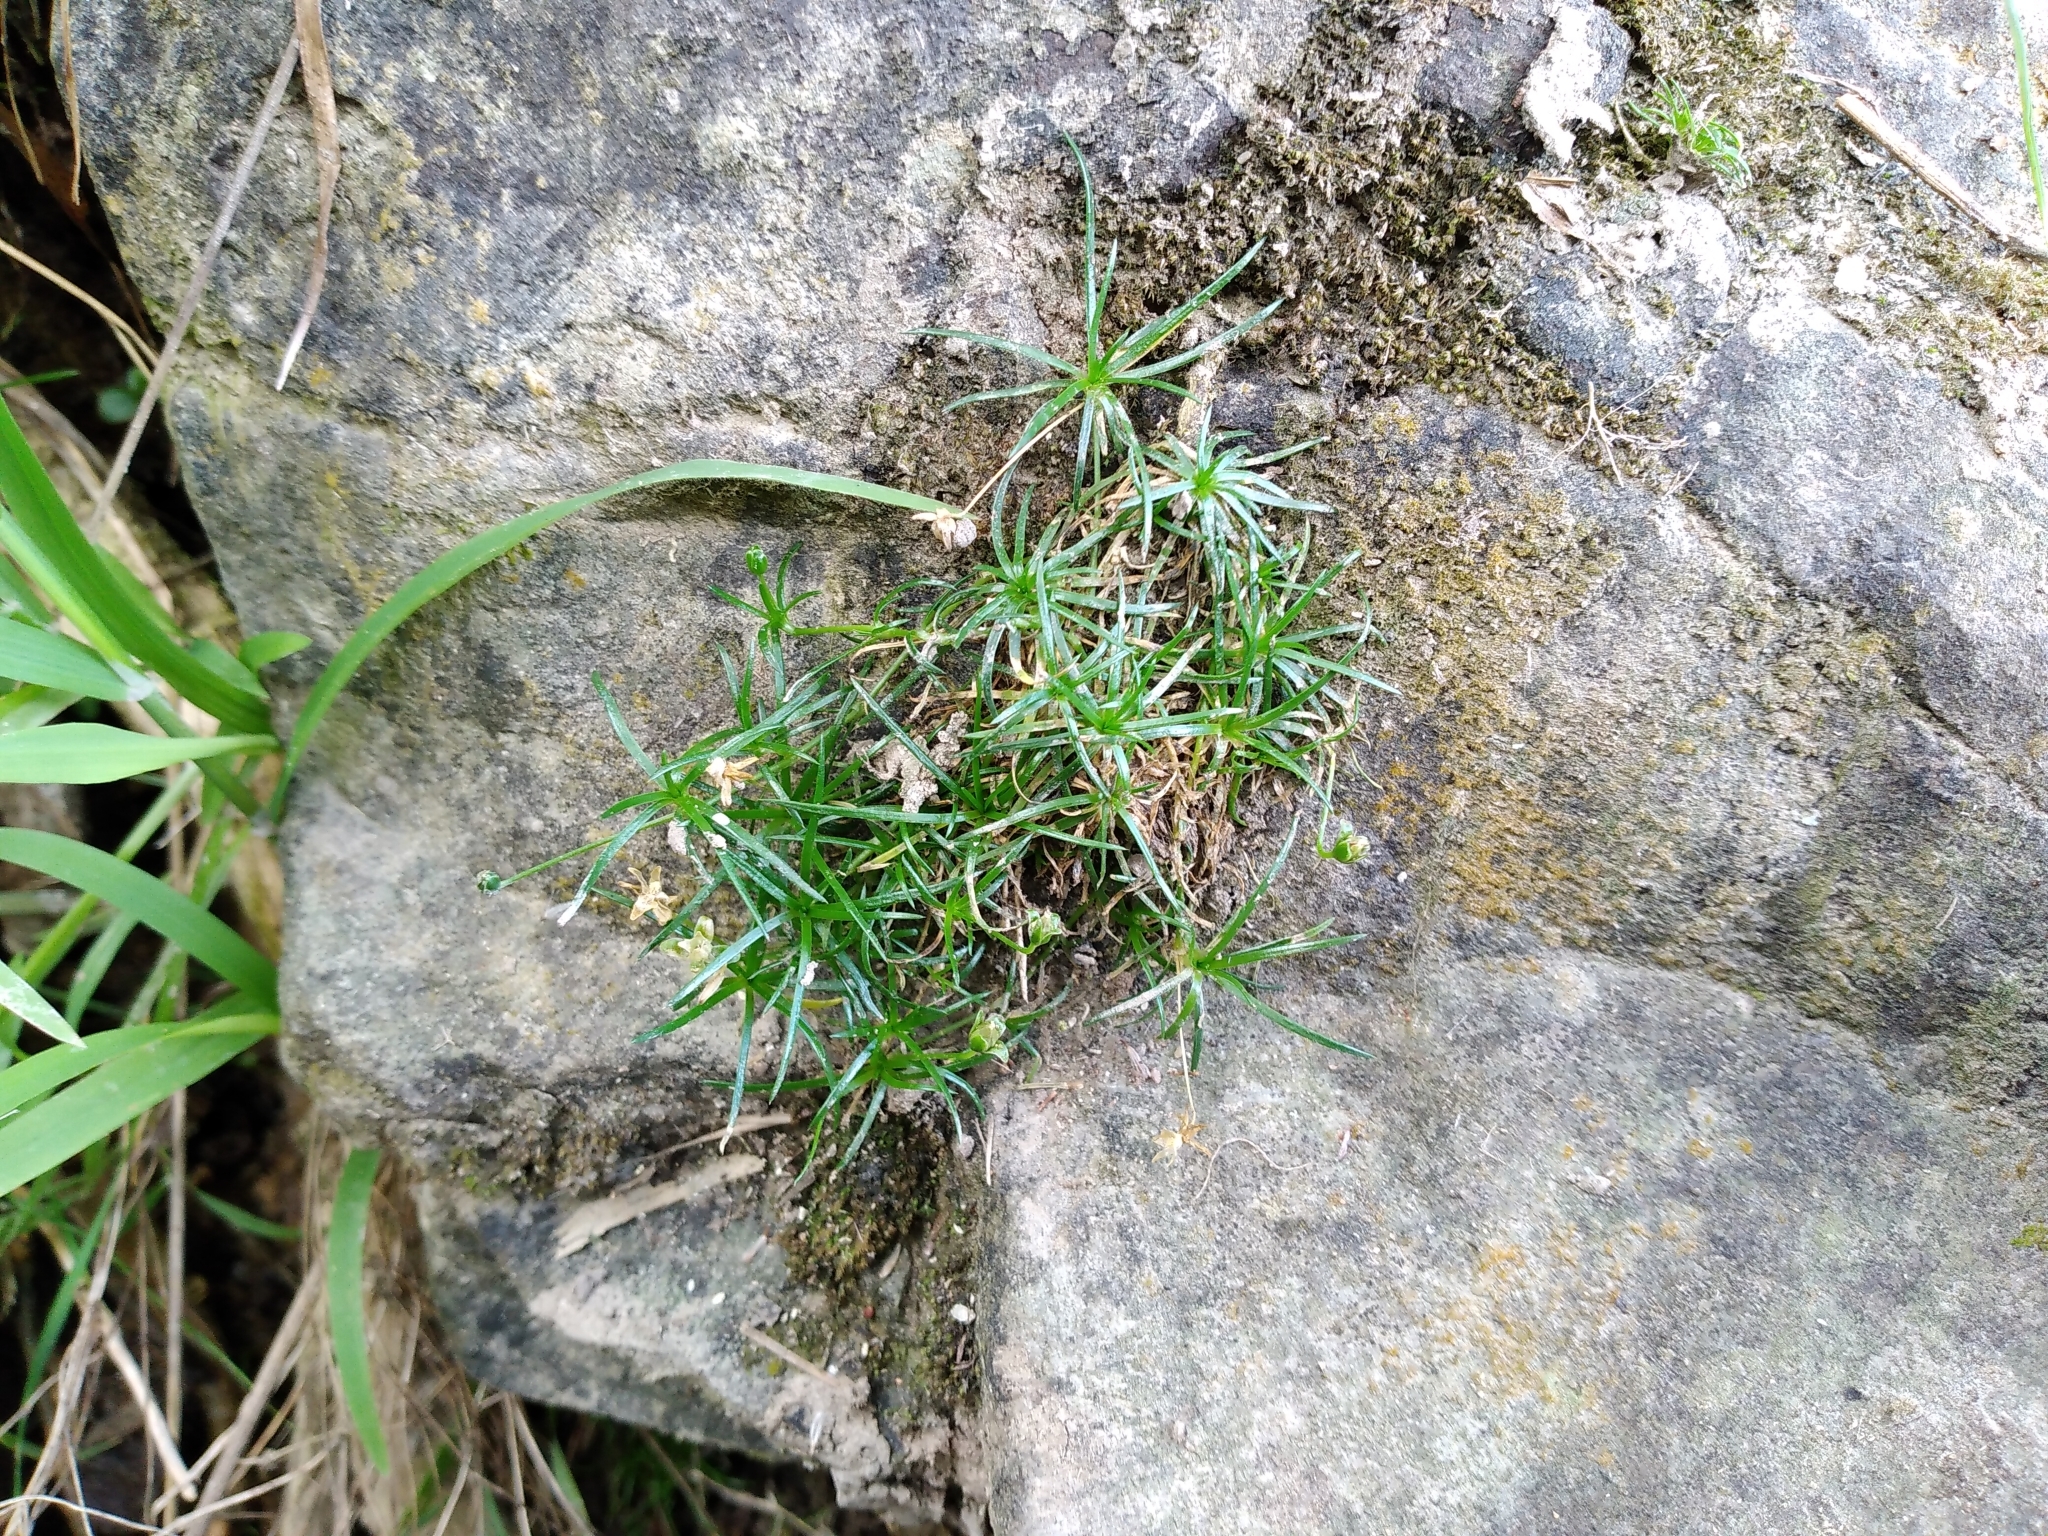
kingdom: Plantae
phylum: Tracheophyta
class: Magnoliopsida
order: Caryophyllales
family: Caryophyllaceae
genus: Sagina
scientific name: Sagina procumbens
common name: Procumbent pearlwort
